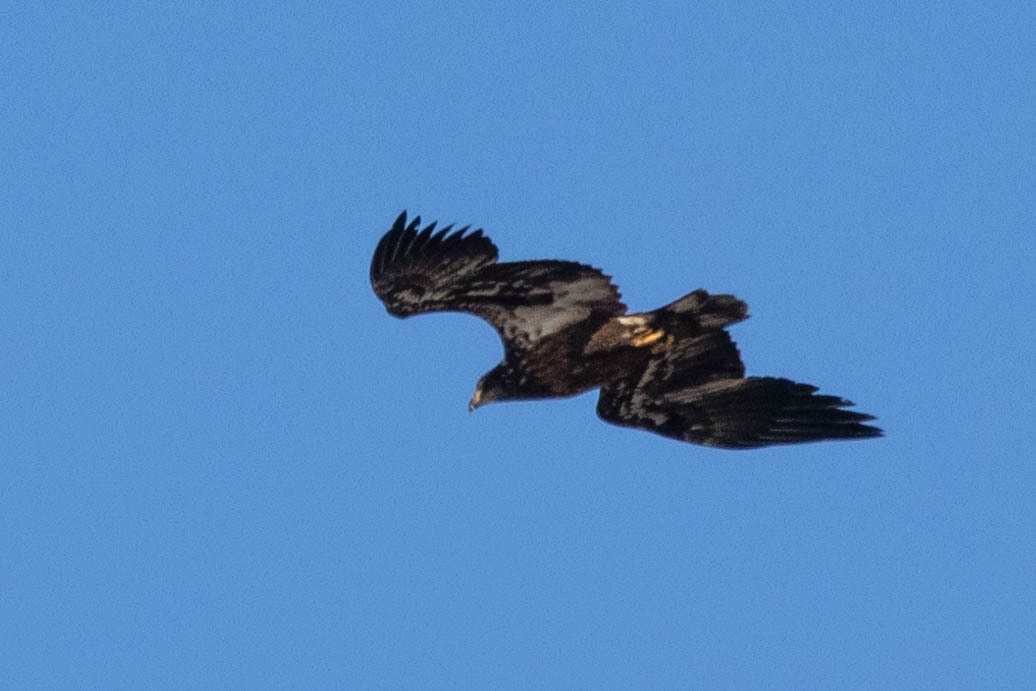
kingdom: Animalia
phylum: Chordata
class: Aves
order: Accipitriformes
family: Accipitridae
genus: Haliaeetus
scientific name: Haliaeetus leucocephalus
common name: Bald eagle
